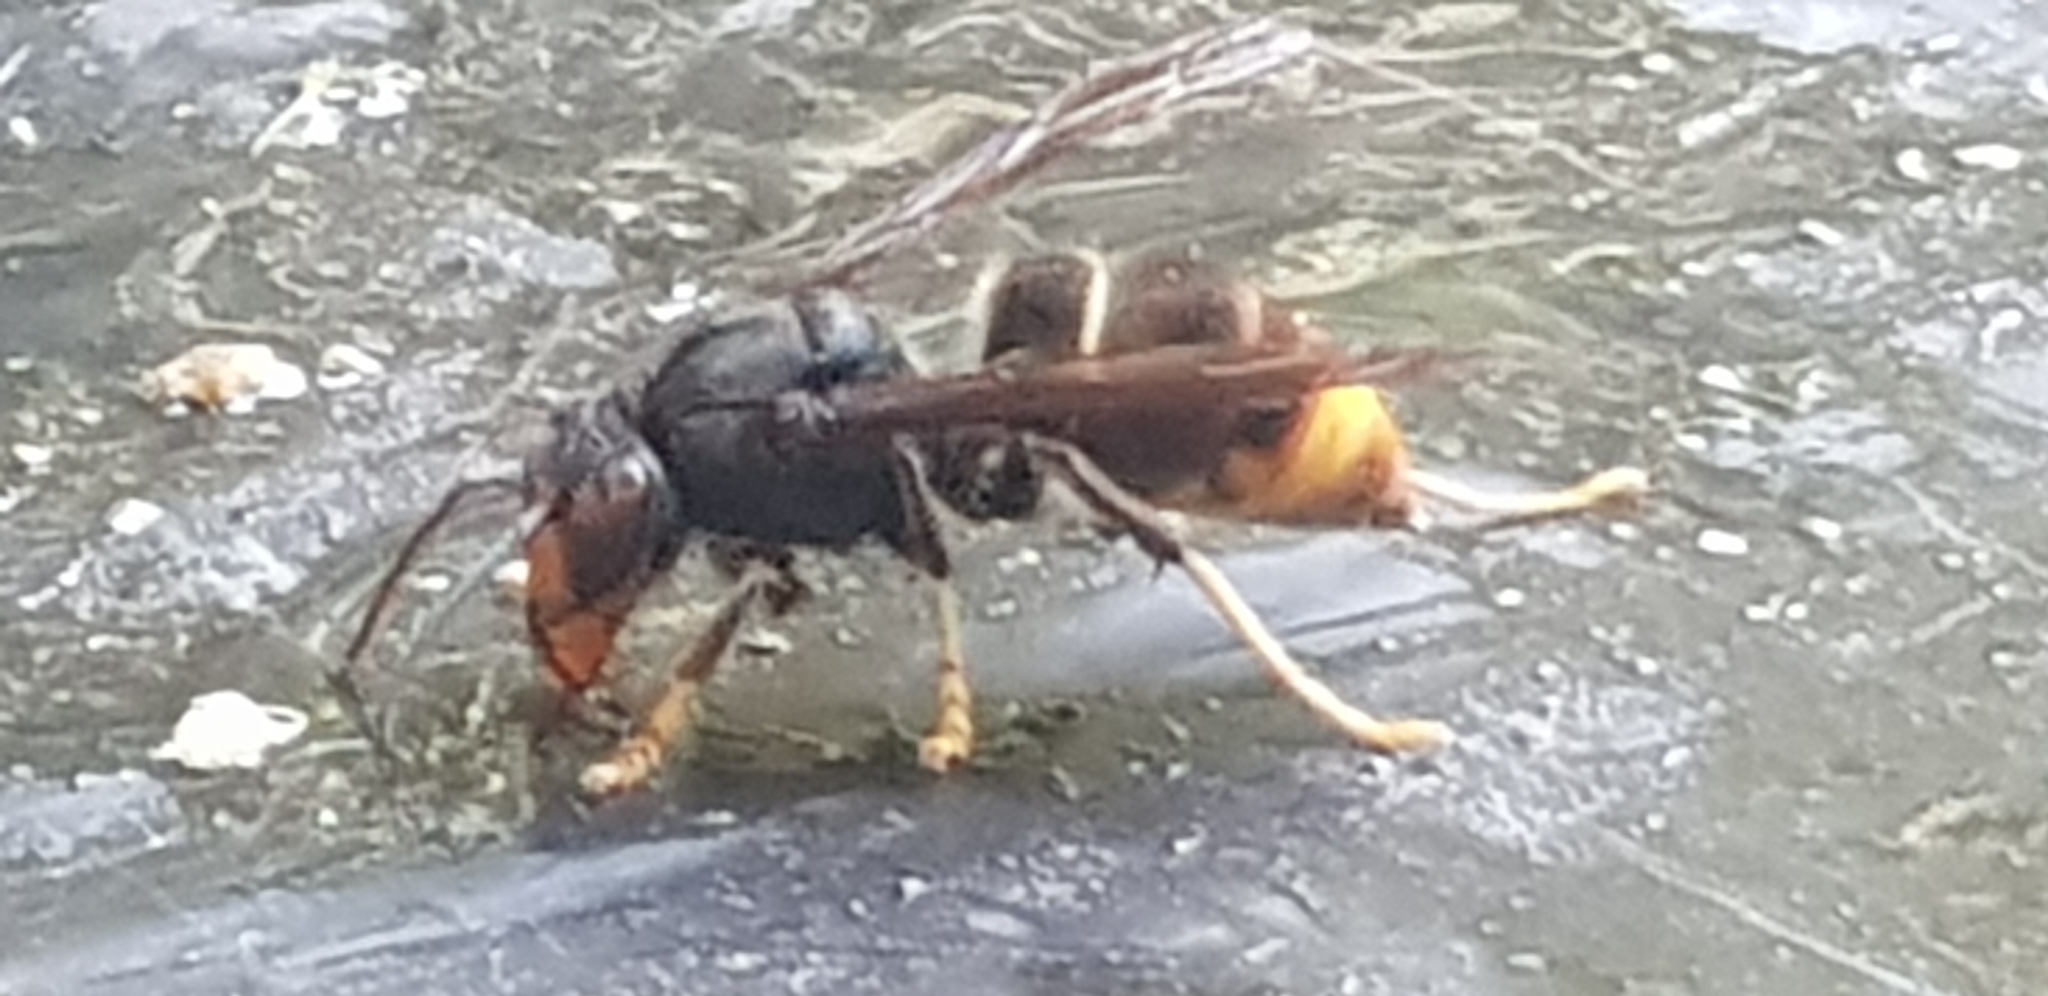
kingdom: Animalia
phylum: Arthropoda
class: Insecta
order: Hymenoptera
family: Vespidae
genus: Vespa
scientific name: Vespa velutina
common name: Asian hornet
